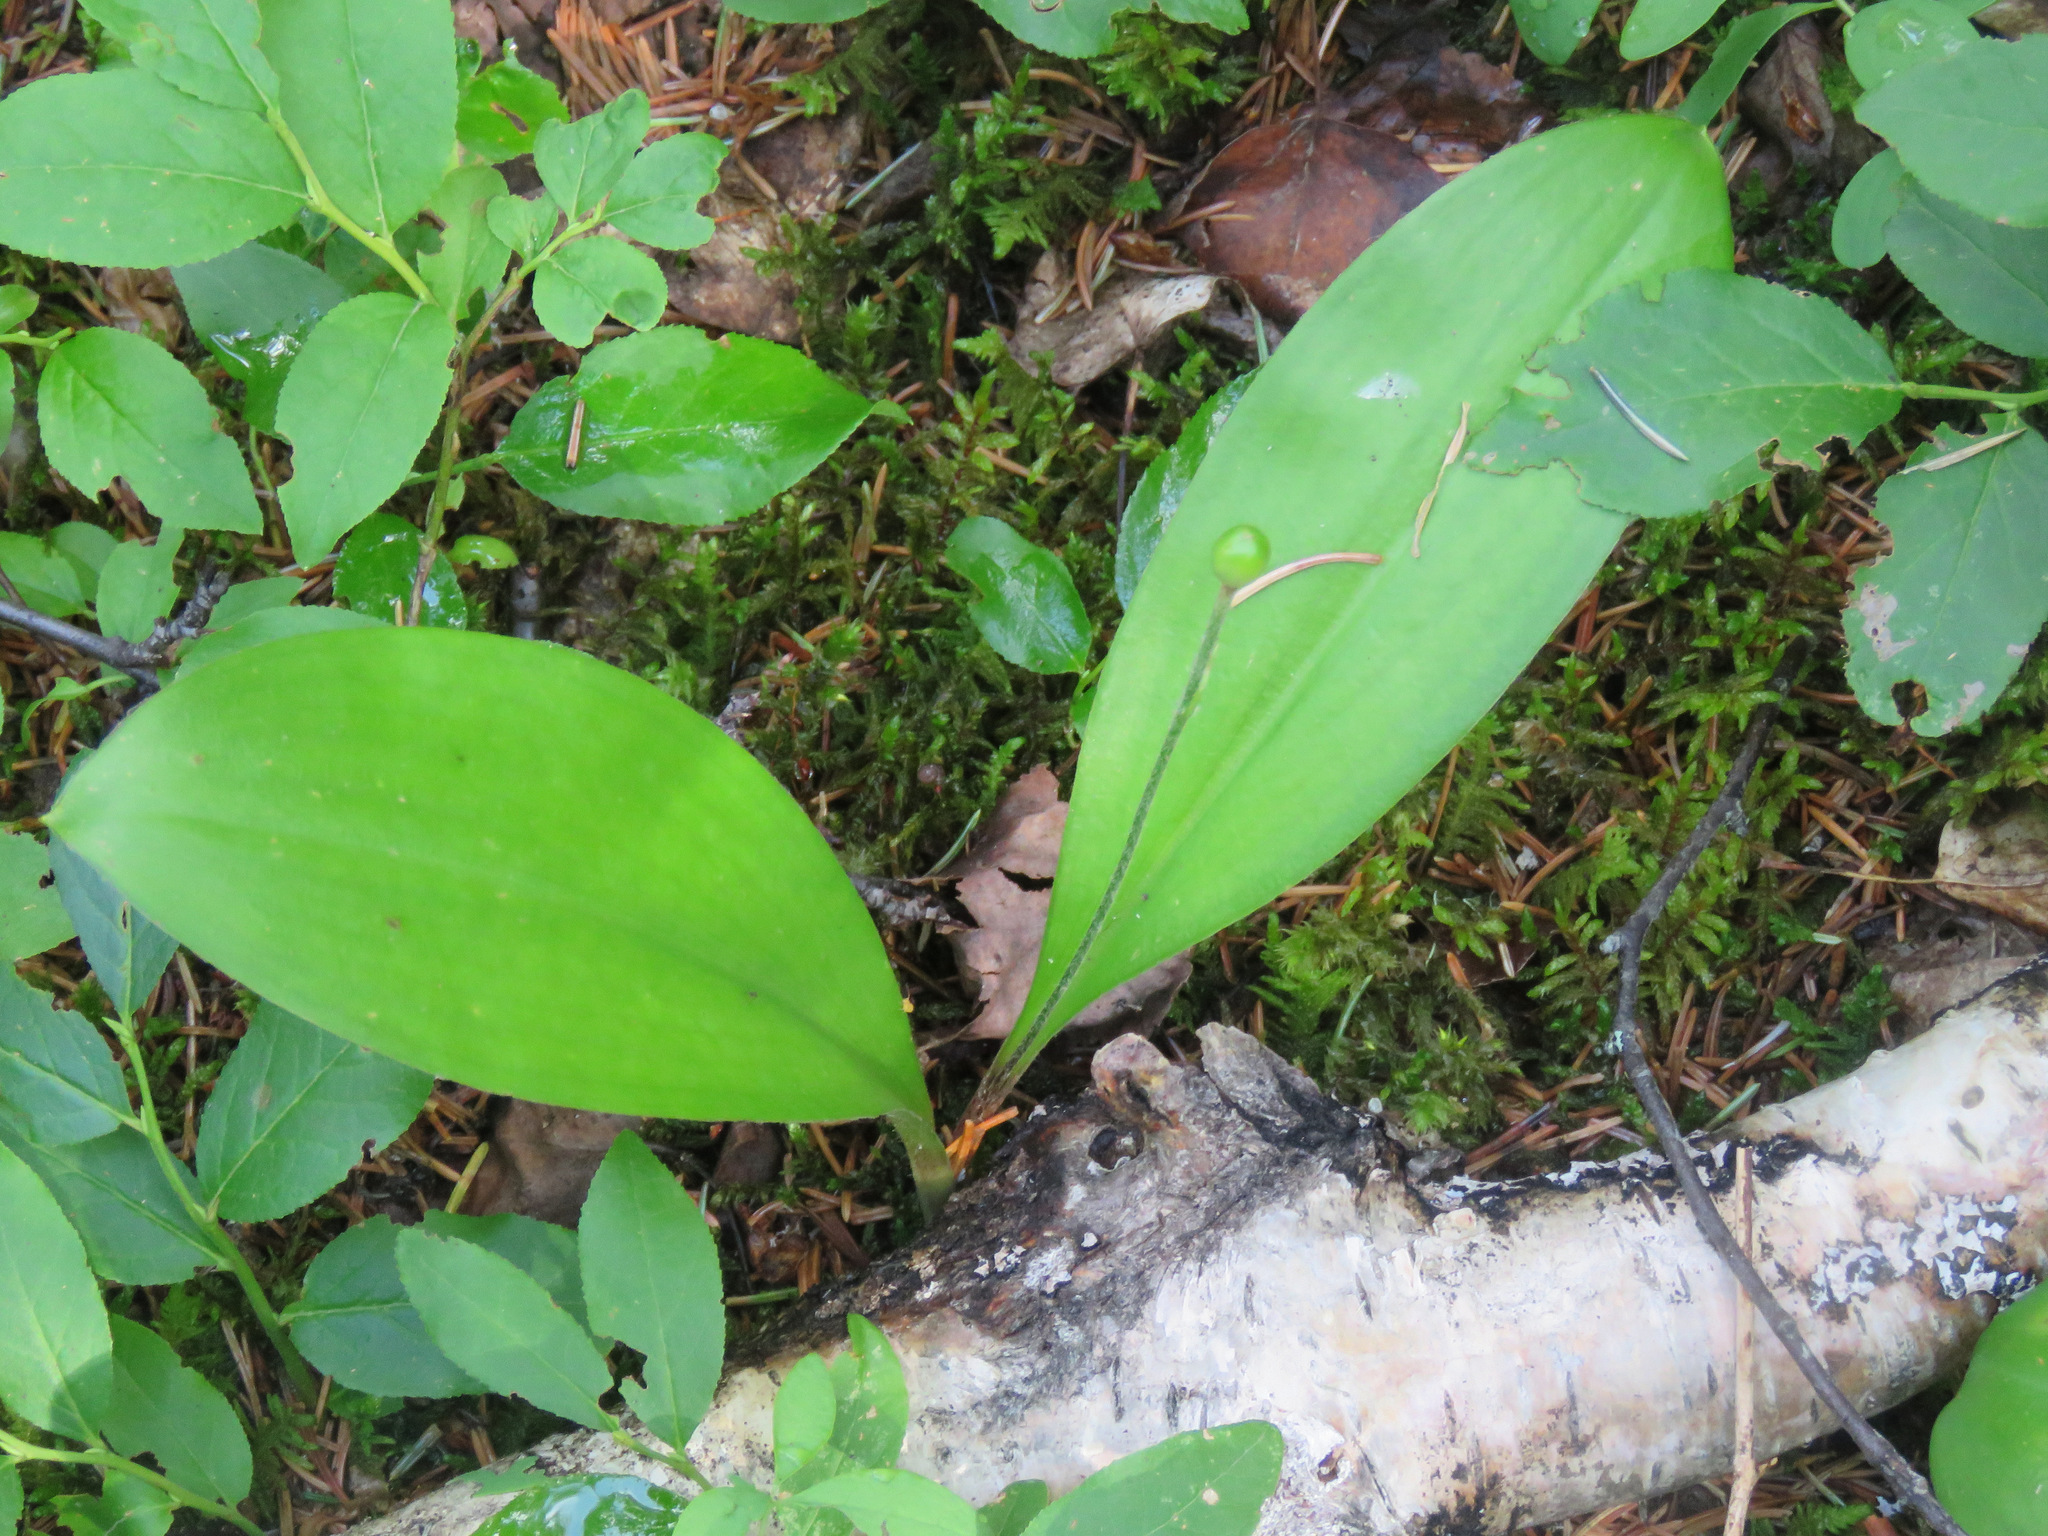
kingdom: Plantae
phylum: Tracheophyta
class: Liliopsida
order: Liliales
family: Liliaceae
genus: Clintonia
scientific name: Clintonia uniflora
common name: Queen's cup
